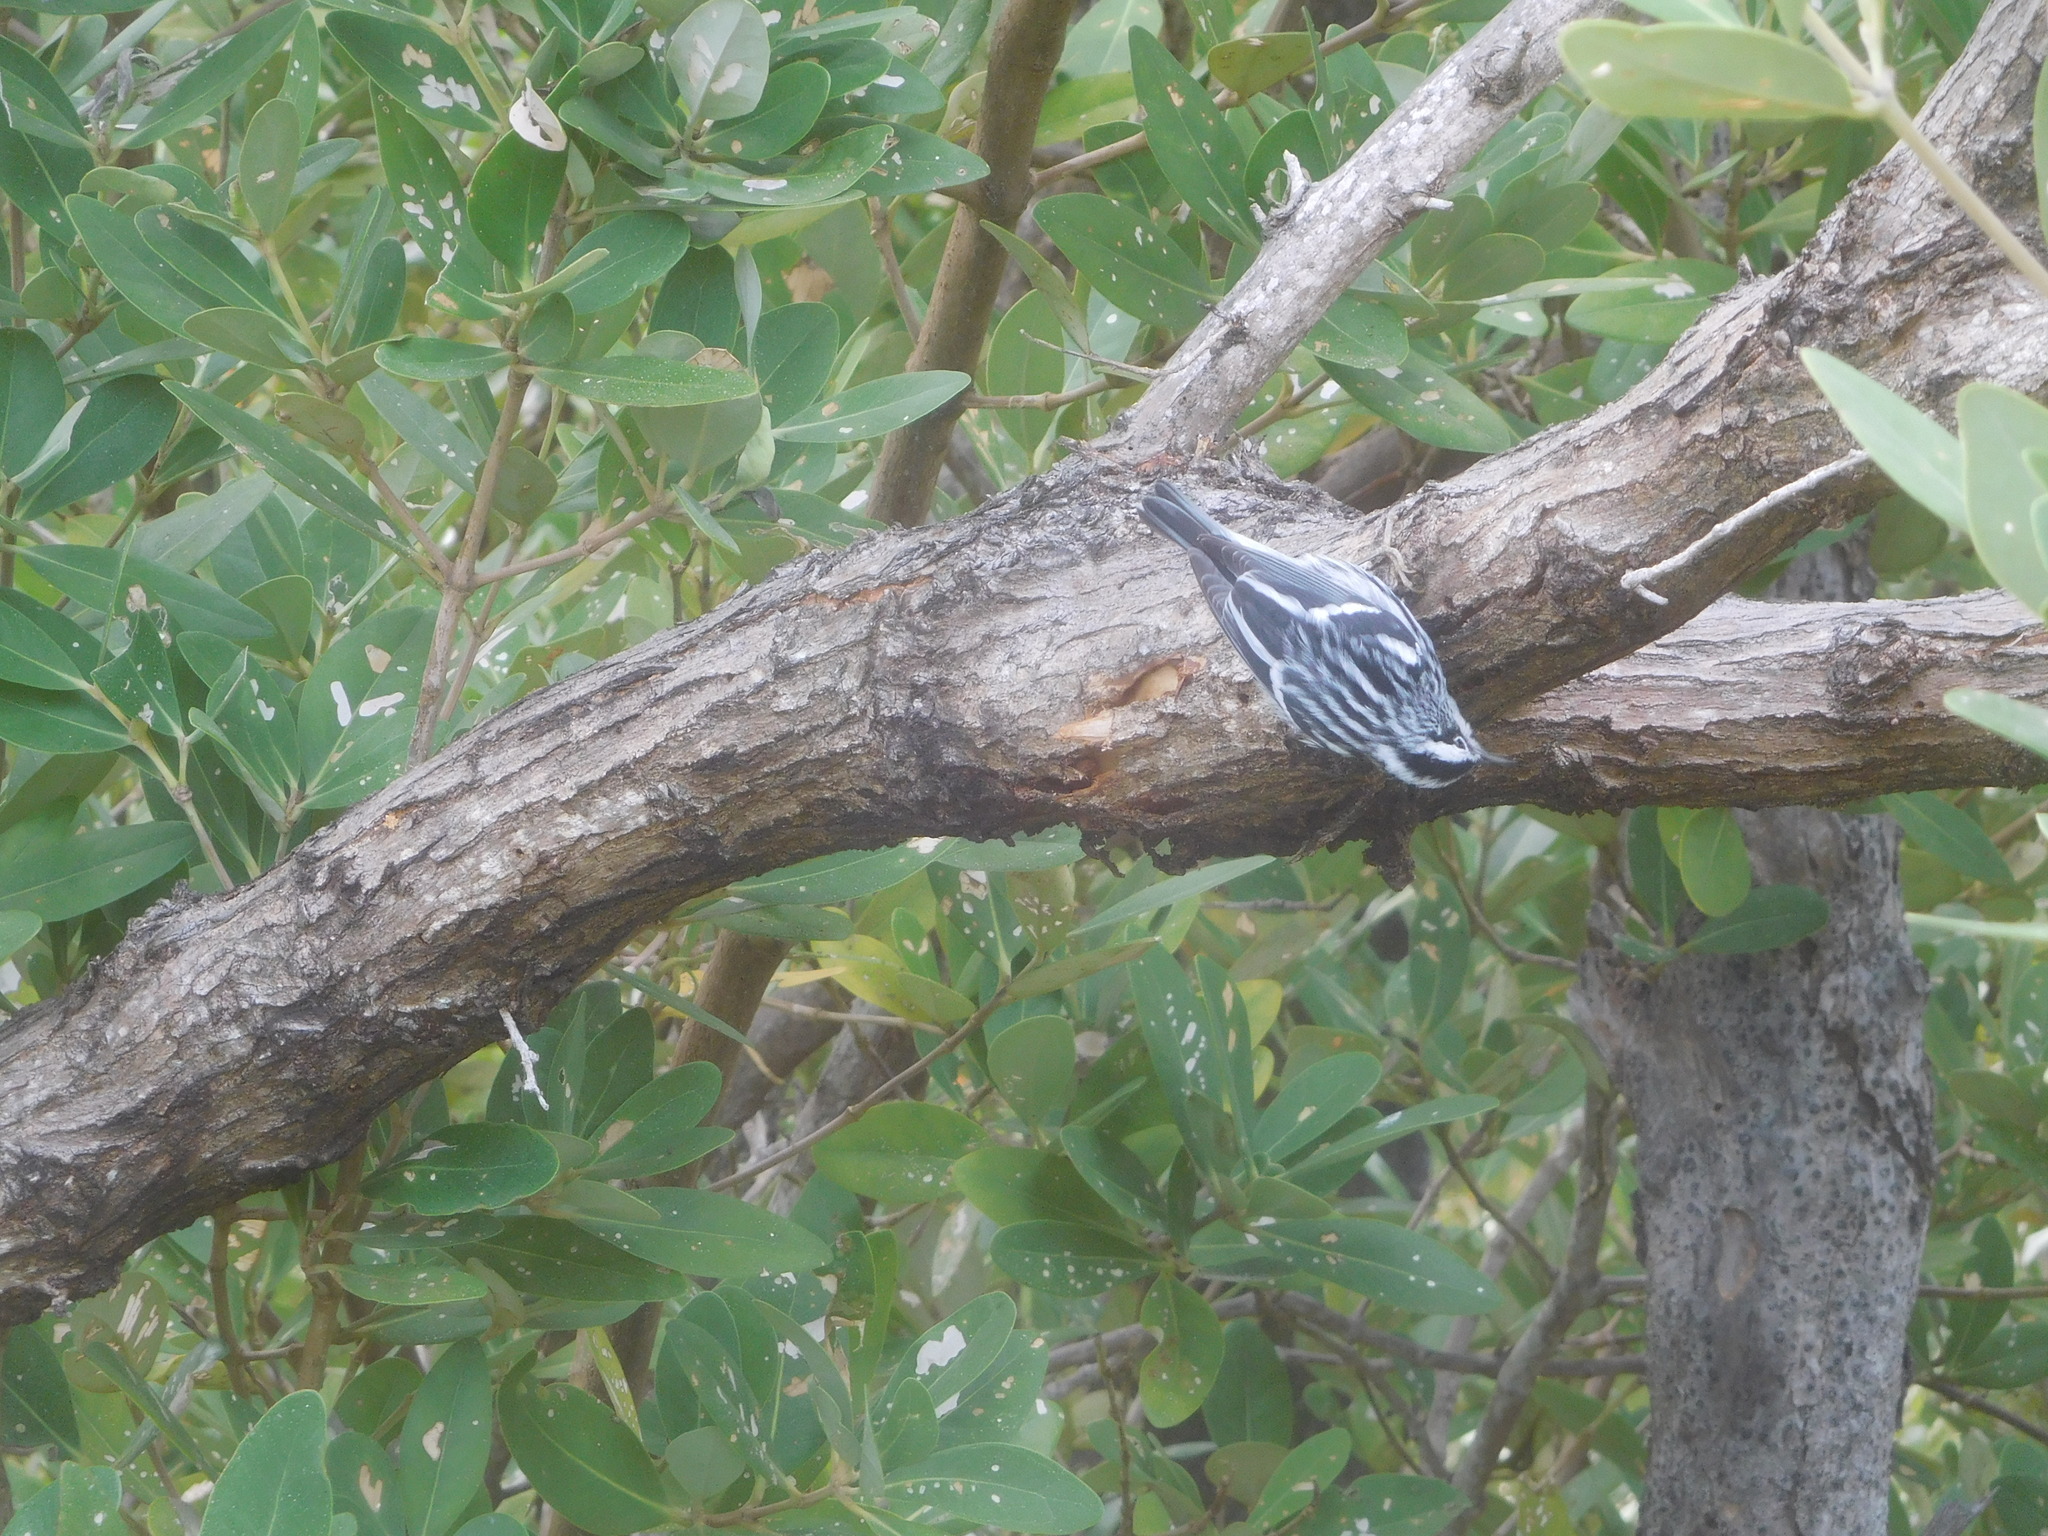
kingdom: Animalia
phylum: Chordata
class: Aves
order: Passeriformes
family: Parulidae
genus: Mniotilta
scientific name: Mniotilta varia
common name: Black-and-white warbler
